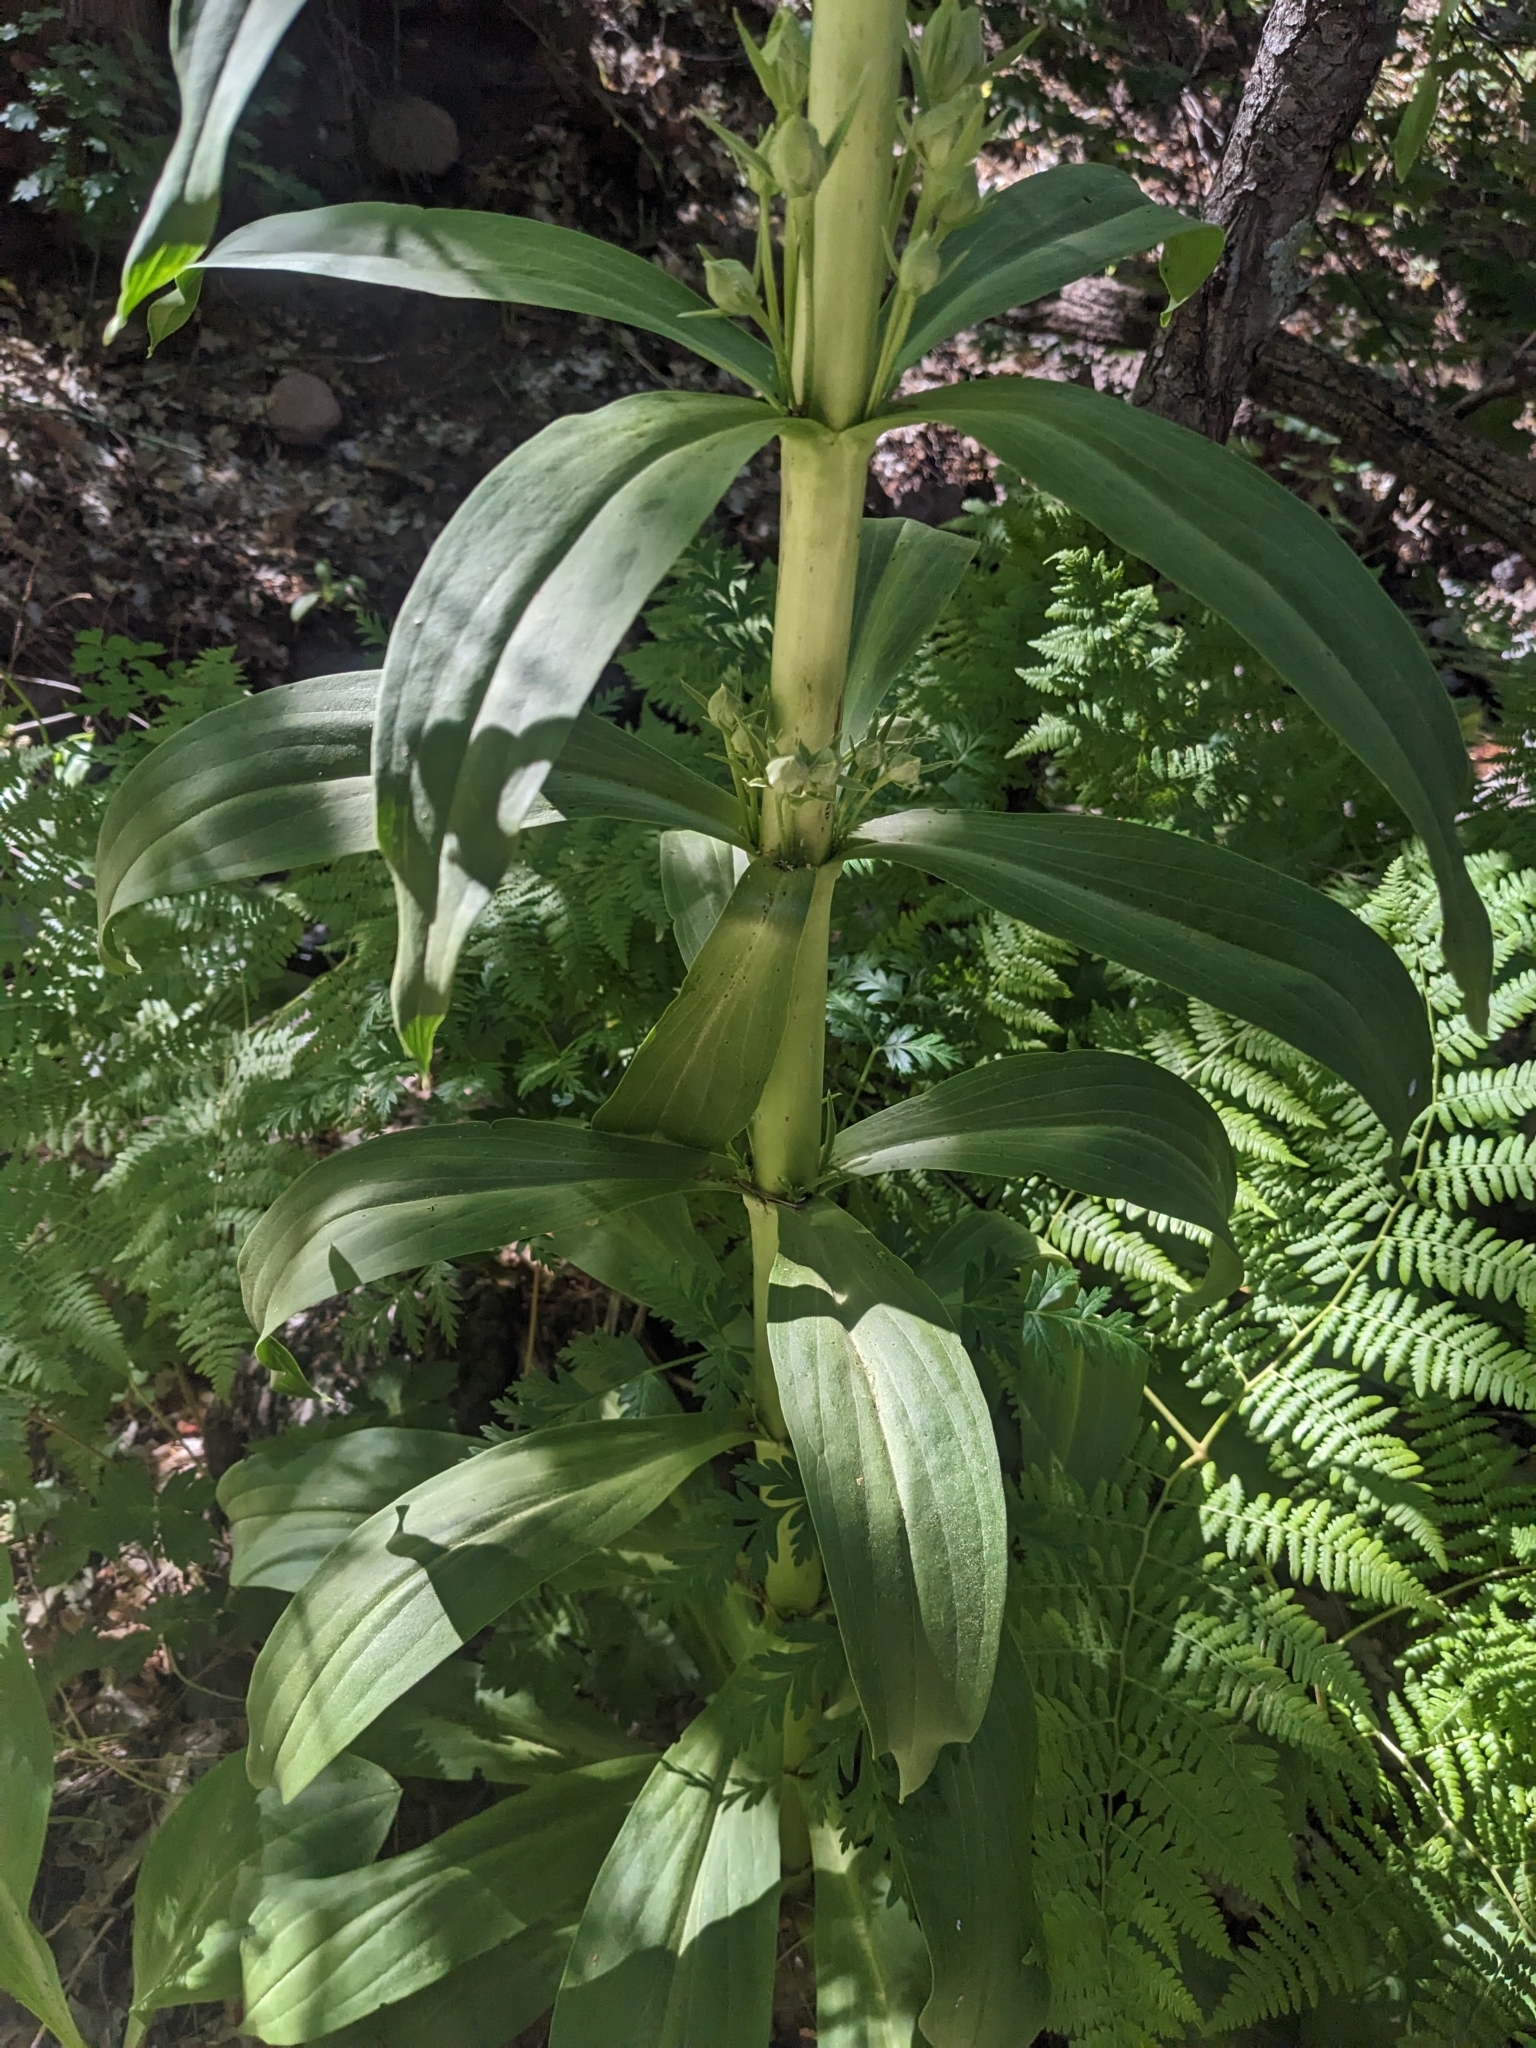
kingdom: Plantae
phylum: Tracheophyta
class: Magnoliopsida
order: Gentianales
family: Gentianaceae
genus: Frasera
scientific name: Frasera speciosa
